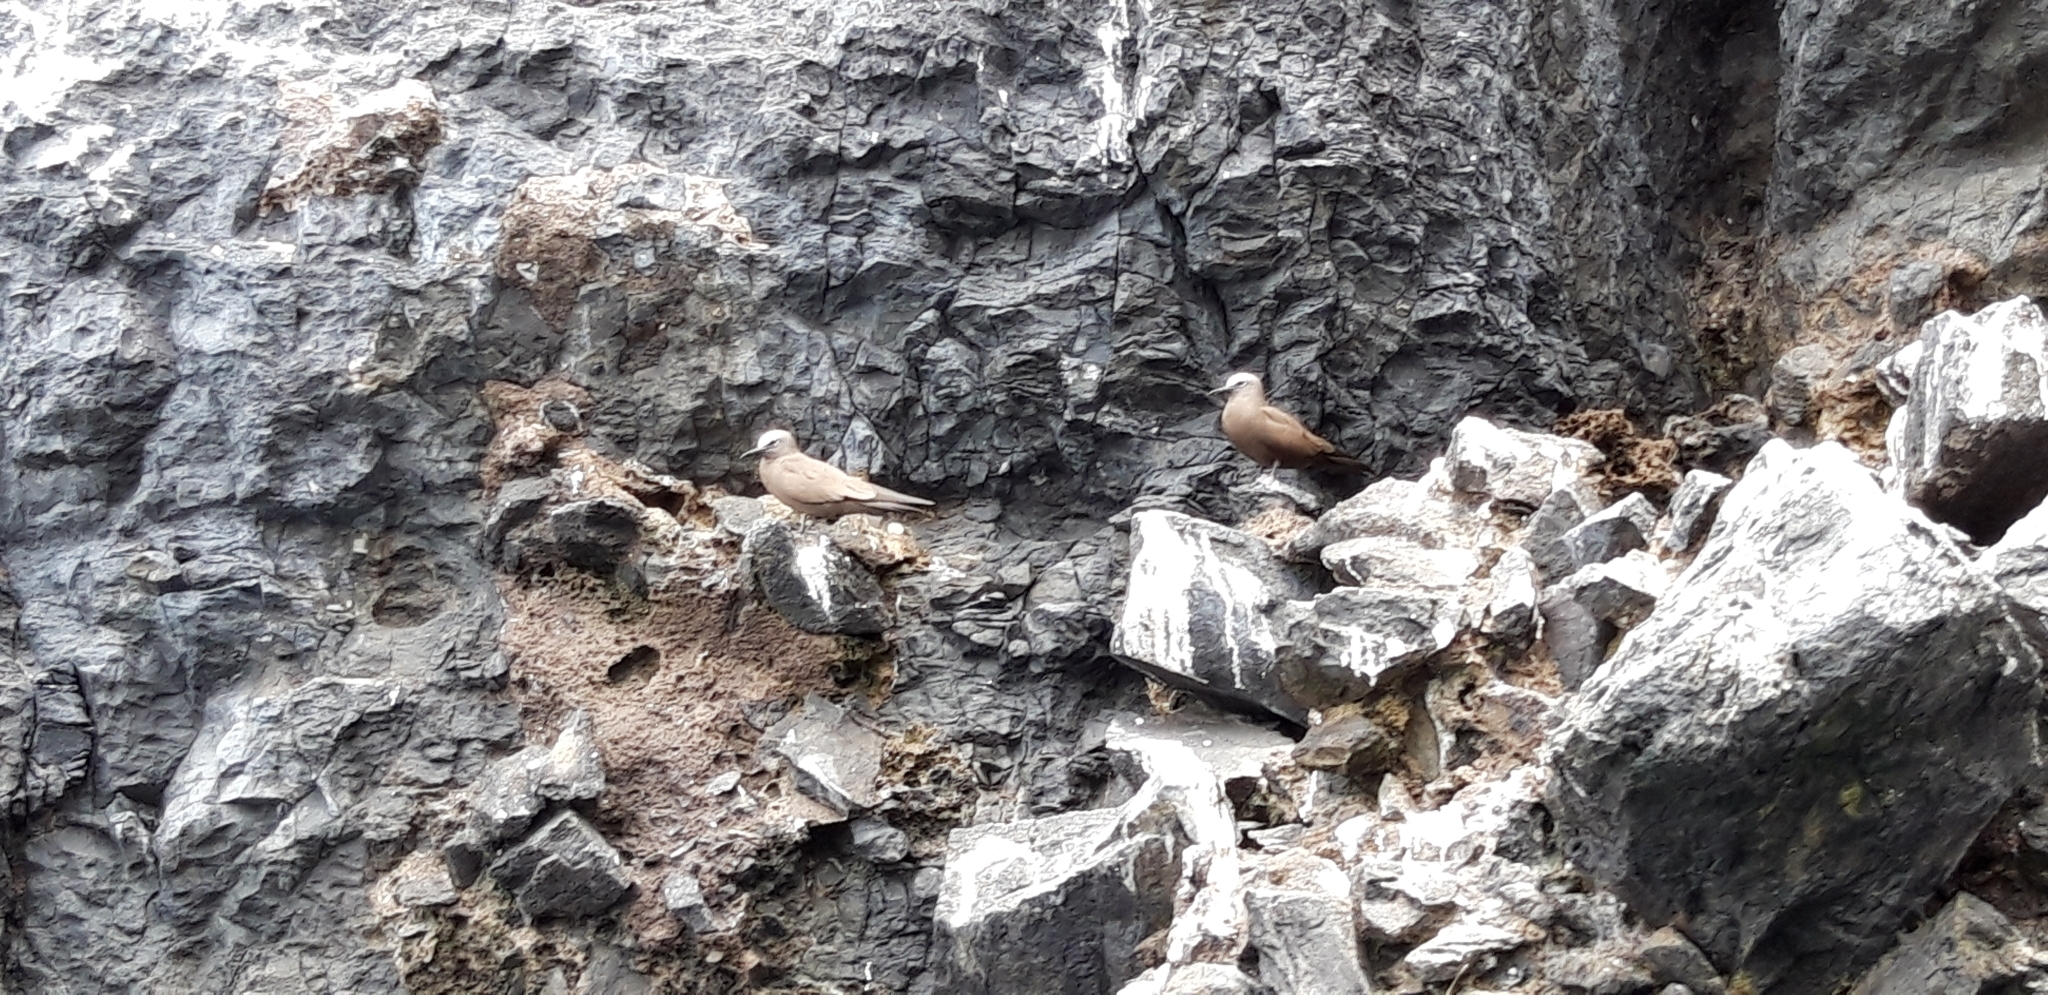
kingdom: Animalia
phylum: Chordata
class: Aves
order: Charadriiformes
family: Laridae
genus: Anous
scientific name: Anous stolidus
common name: Brown noddy
